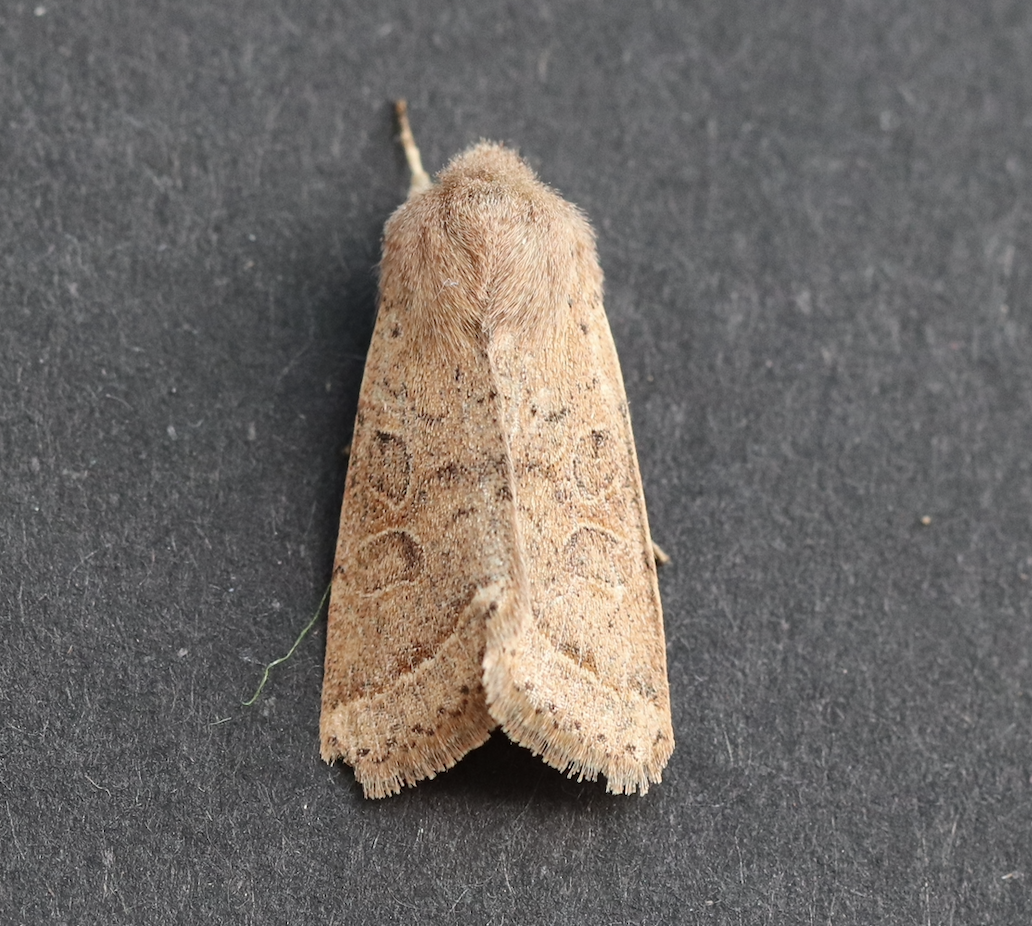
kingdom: Animalia
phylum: Arthropoda
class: Insecta
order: Lepidoptera
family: Noctuidae
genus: Orthosia
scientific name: Orthosia cerasi
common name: Common quaker
